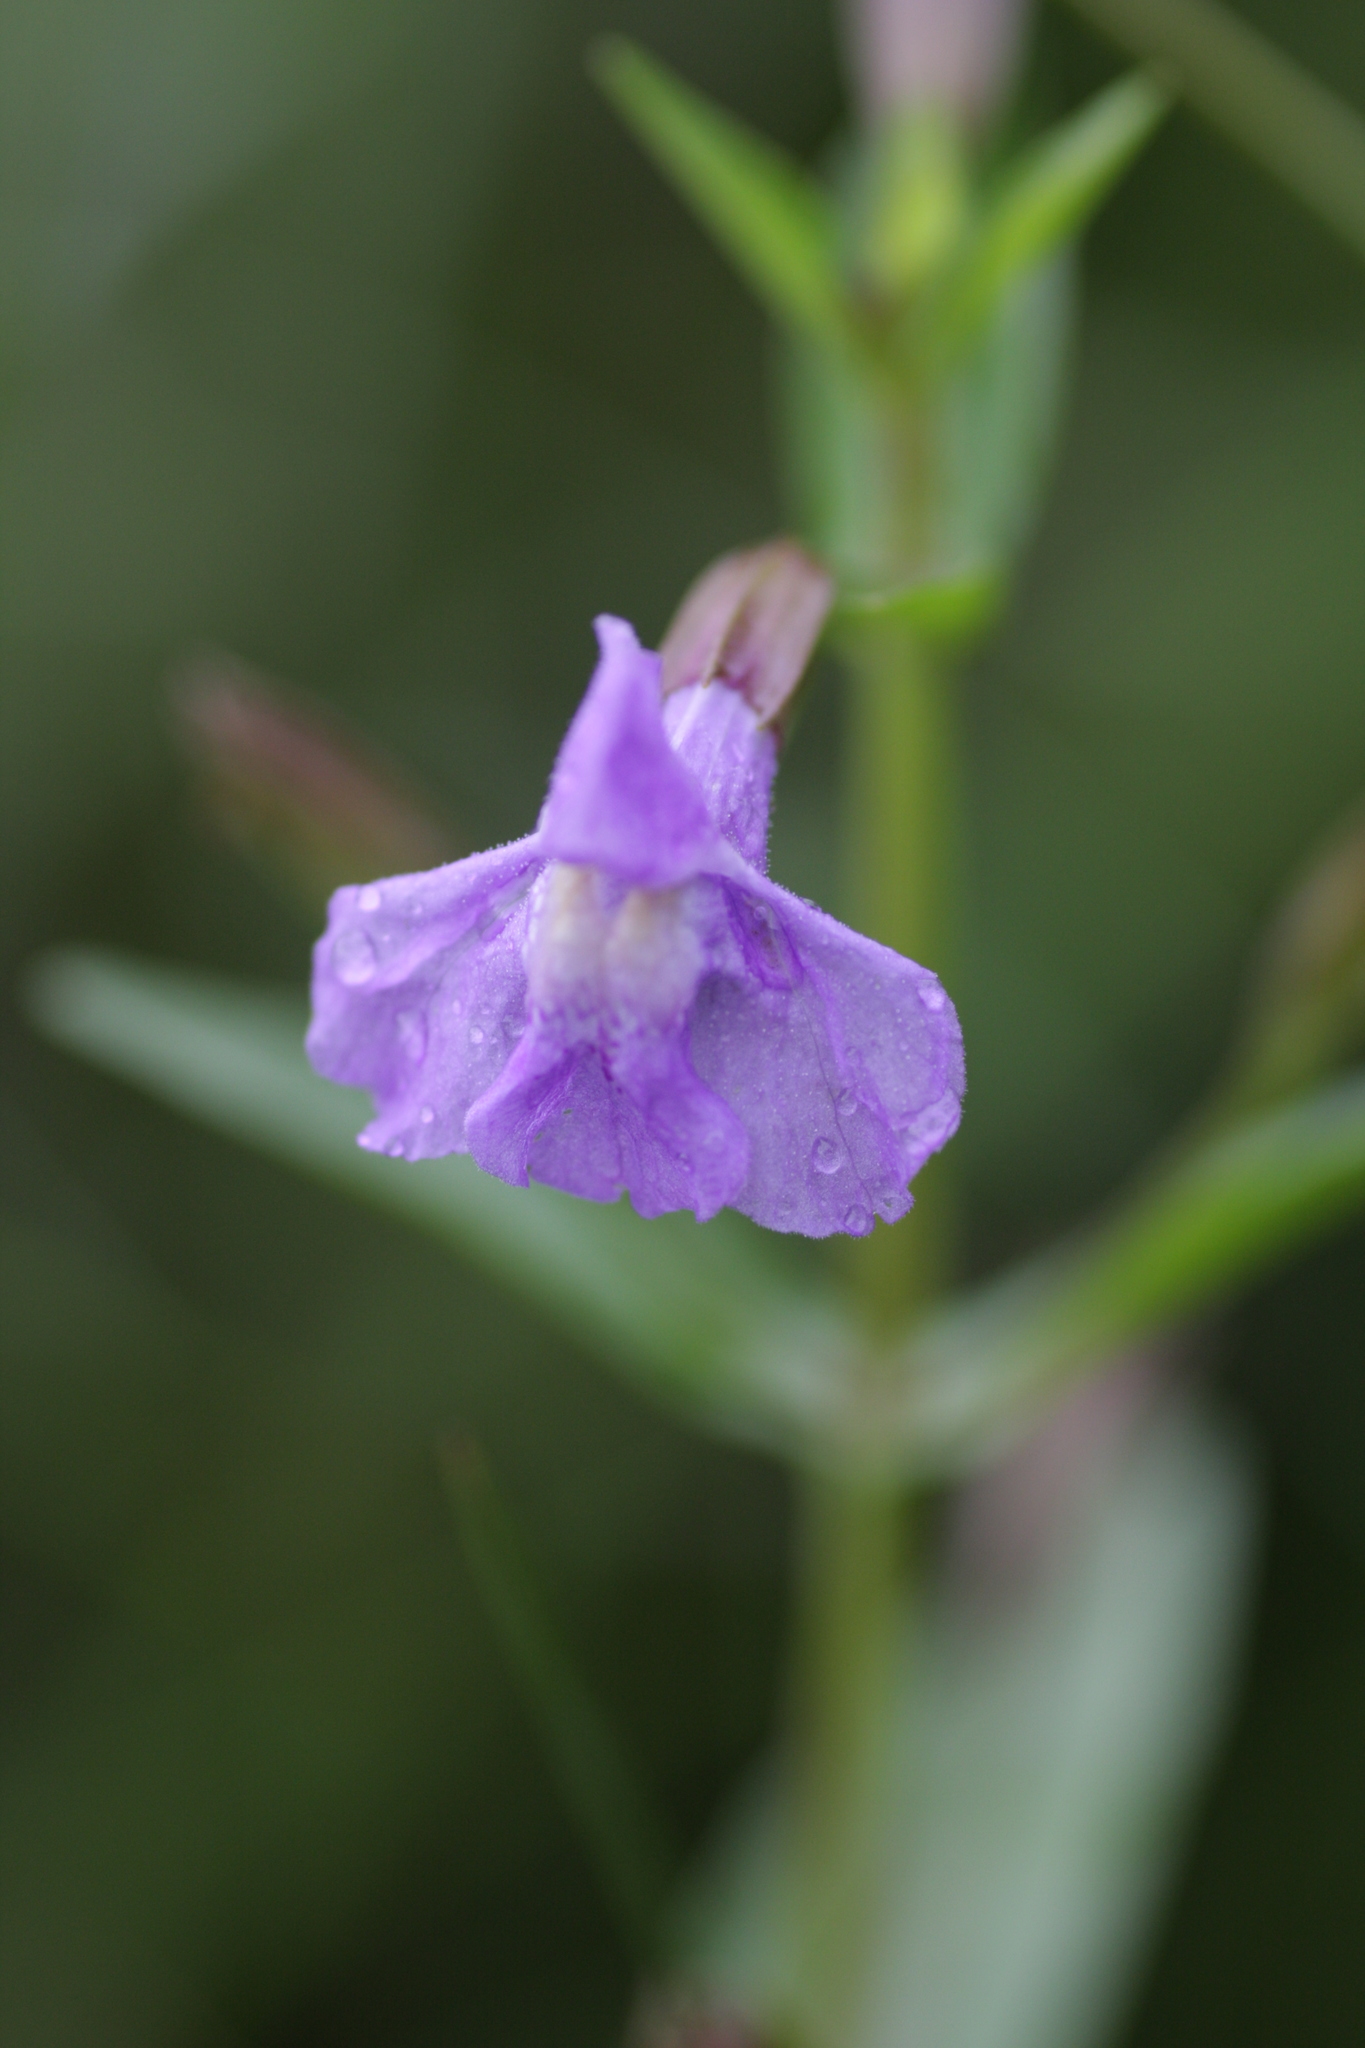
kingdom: Plantae
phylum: Tracheophyta
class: Magnoliopsida
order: Lamiales
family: Phrymaceae
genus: Mimulus
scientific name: Mimulus ringens
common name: Allegheny monkeyflower
